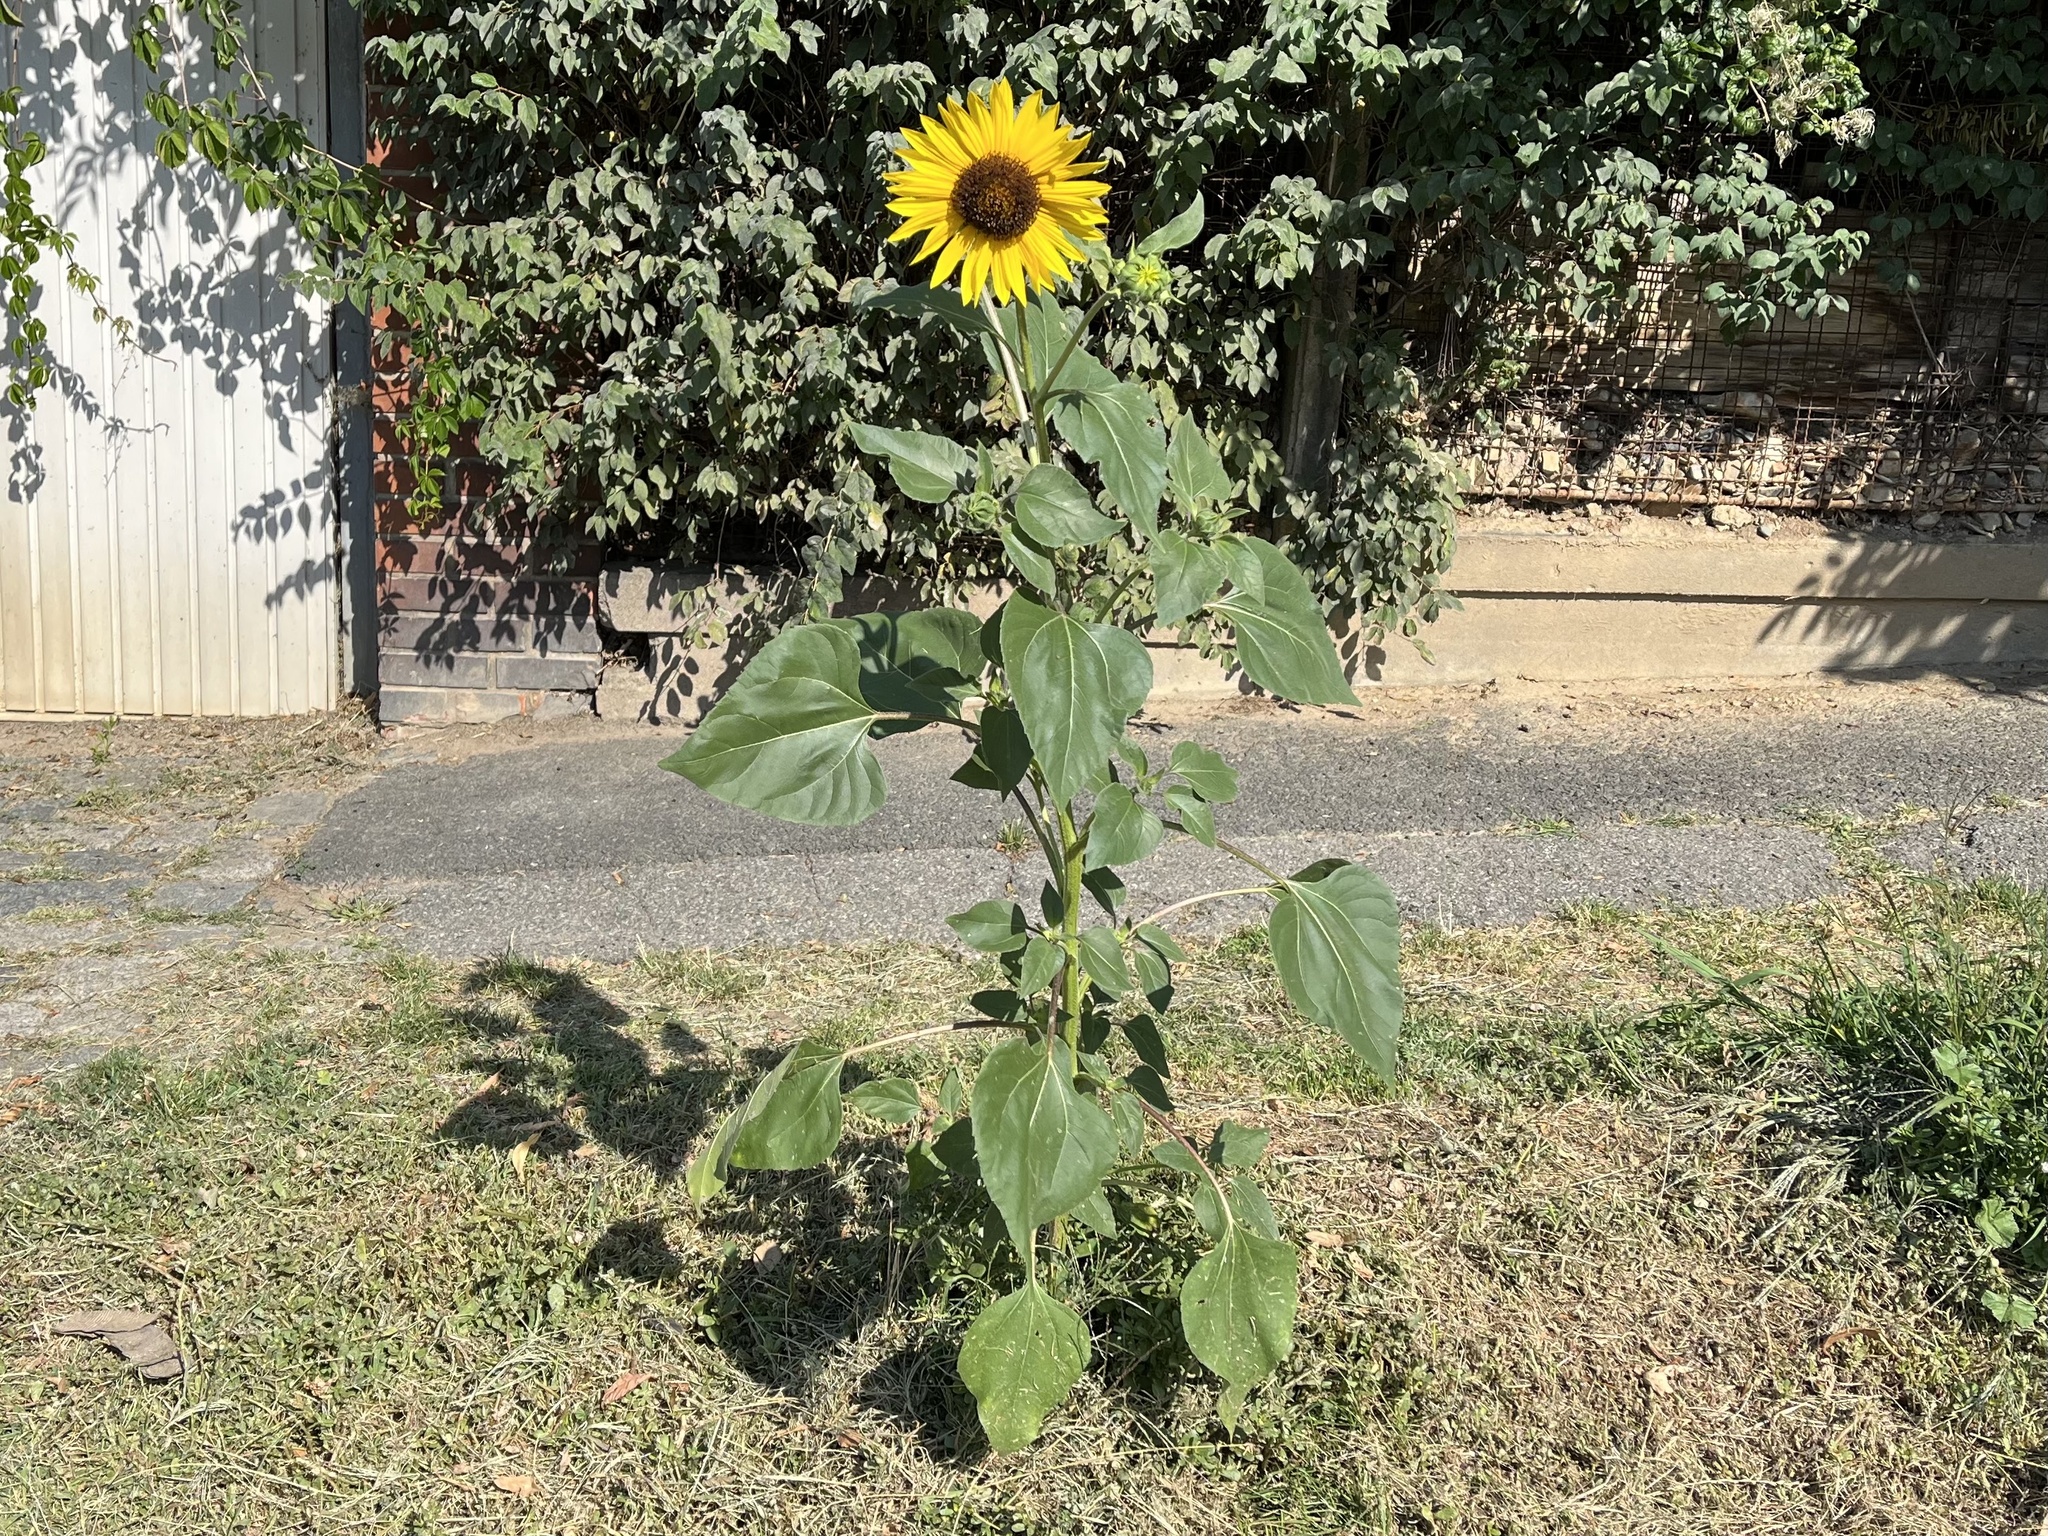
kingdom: Plantae
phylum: Tracheophyta
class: Magnoliopsida
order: Asterales
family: Asteraceae
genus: Helianthus
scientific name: Helianthus annuus
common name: Sunflower
